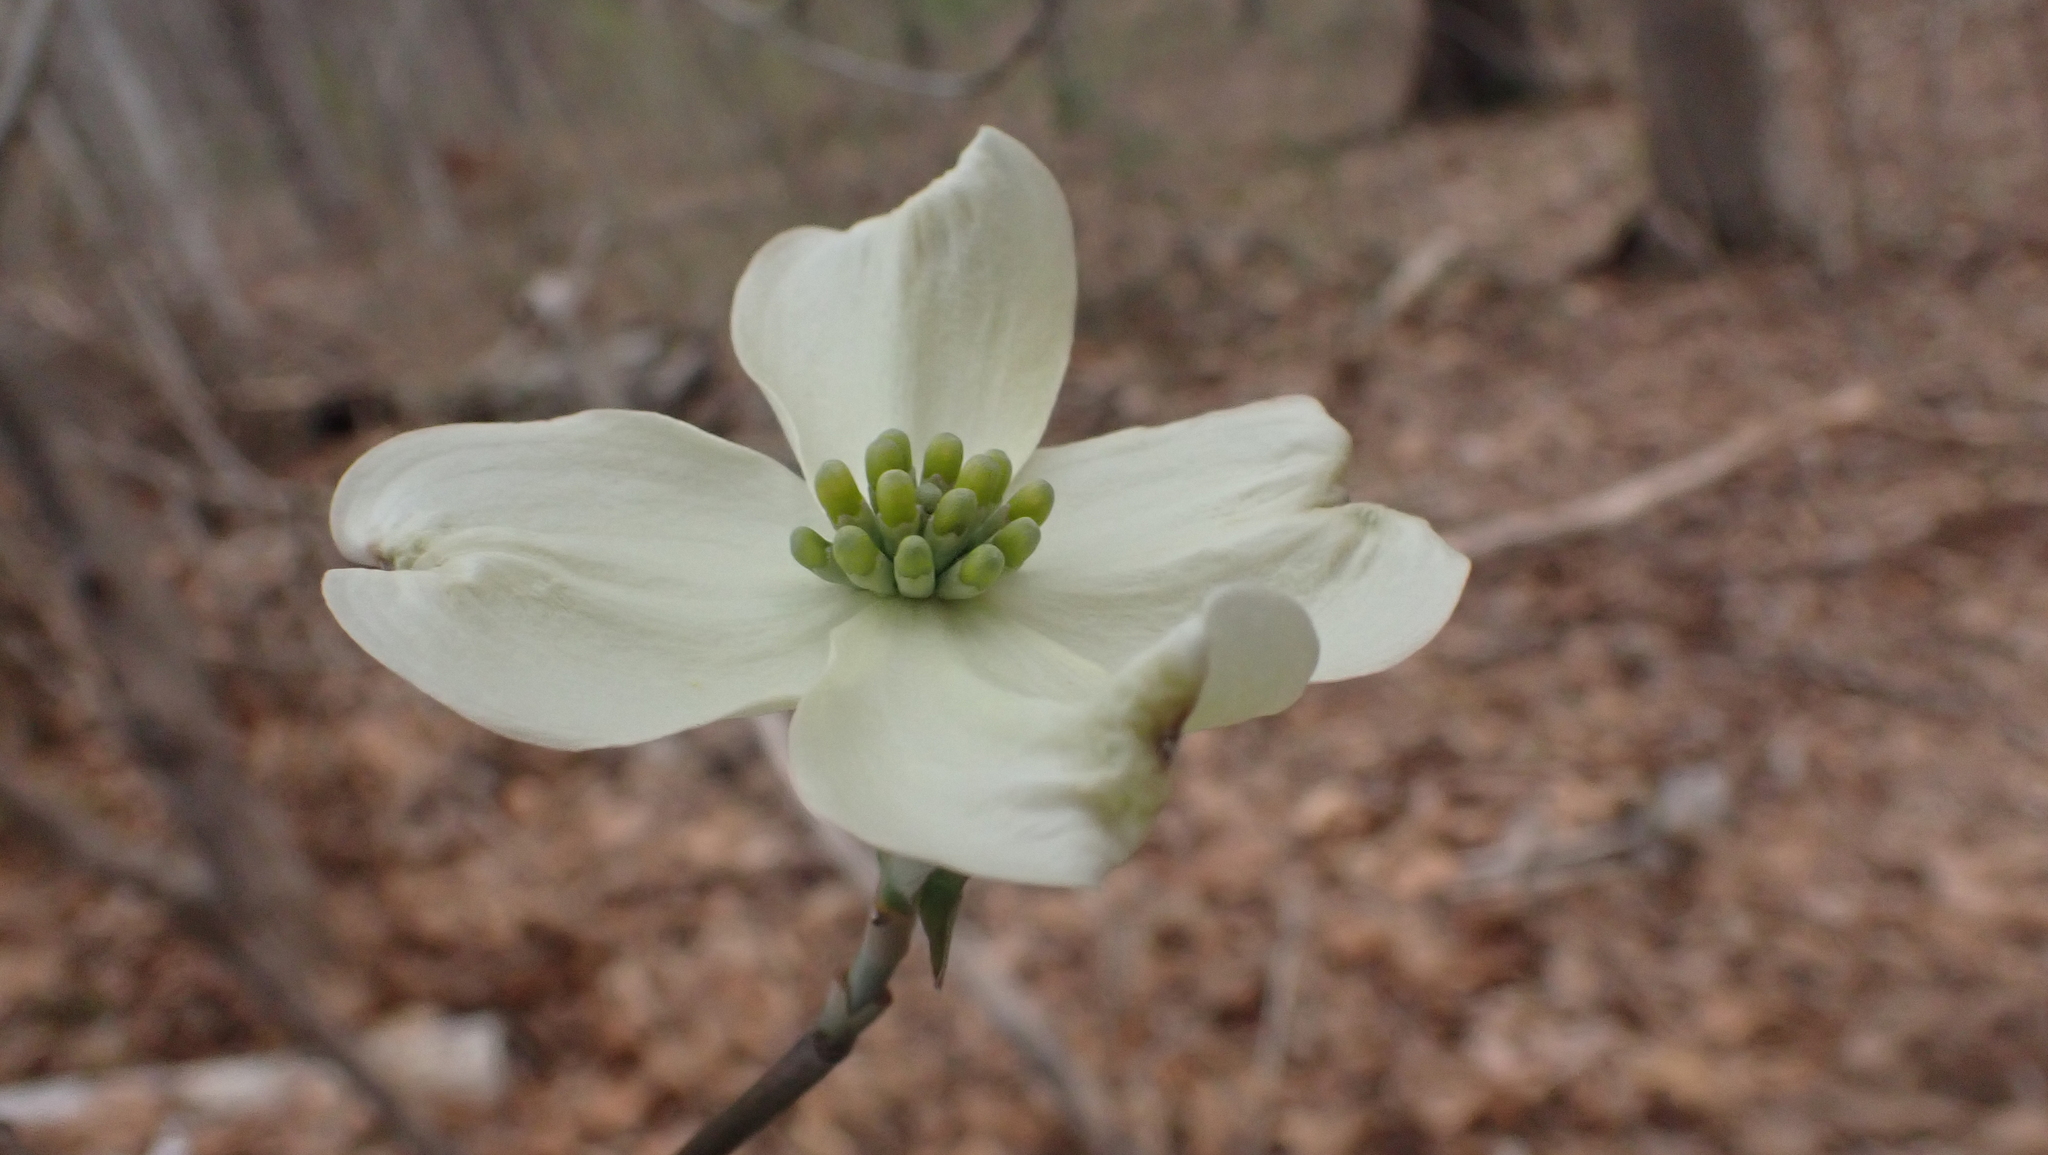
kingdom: Plantae
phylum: Tracheophyta
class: Magnoliopsida
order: Cornales
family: Cornaceae
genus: Cornus
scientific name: Cornus florida
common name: Flowering dogwood
